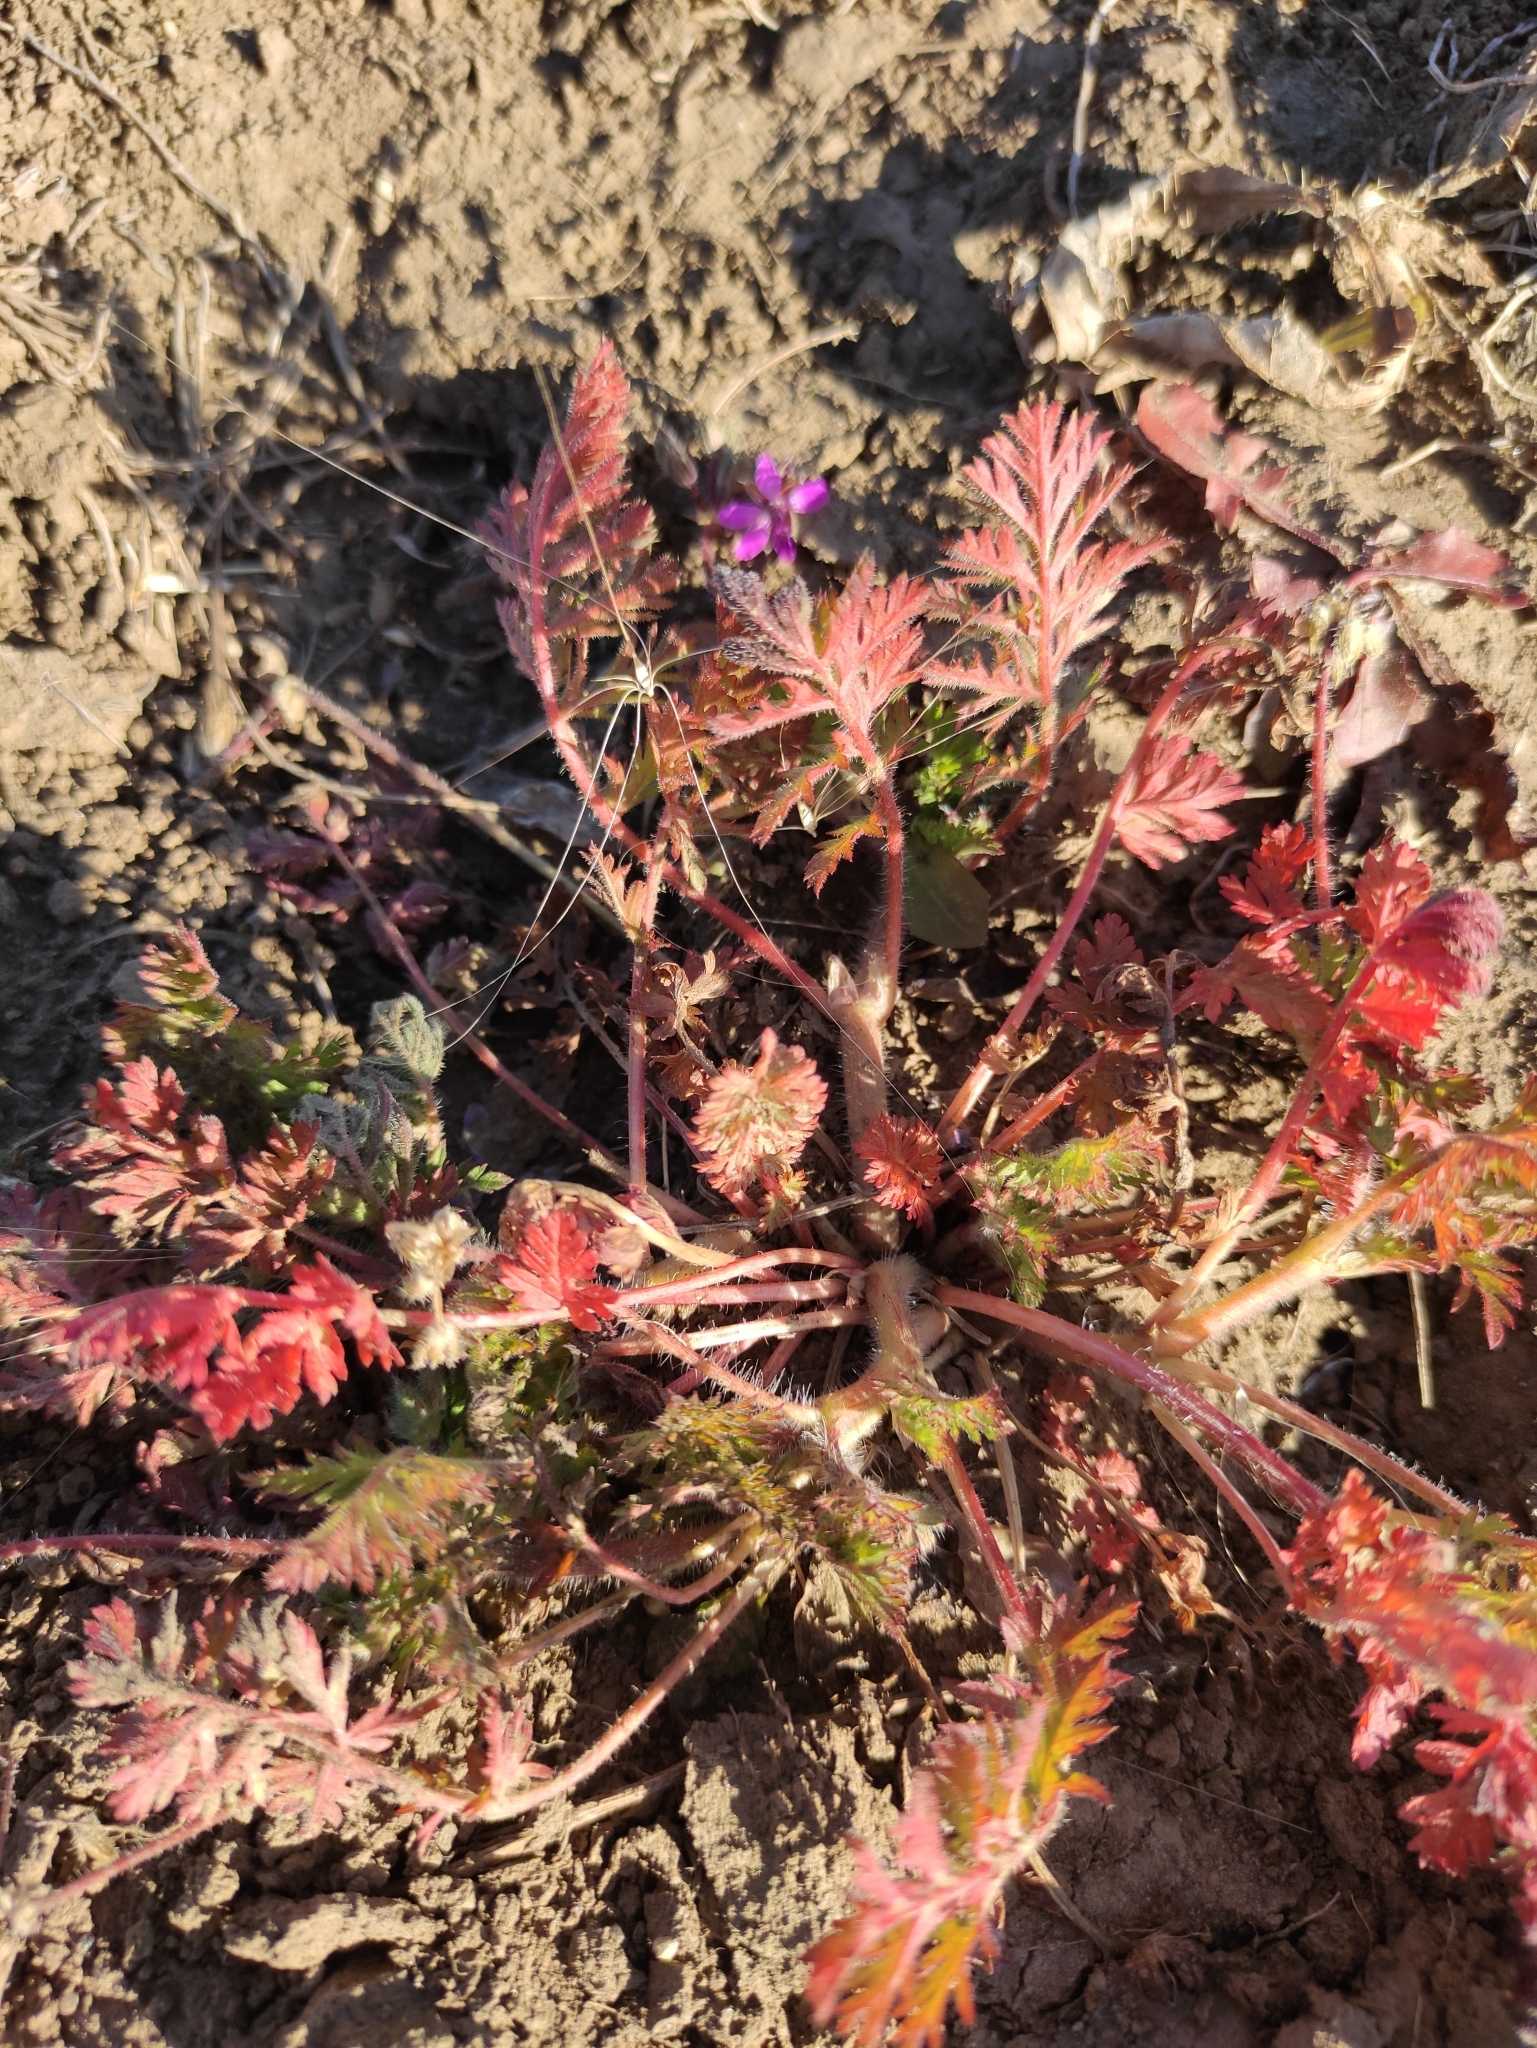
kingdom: Plantae
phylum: Tracheophyta
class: Magnoliopsida
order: Geraniales
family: Geraniaceae
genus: Erodium
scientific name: Erodium cicutarium
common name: Common stork's-bill
